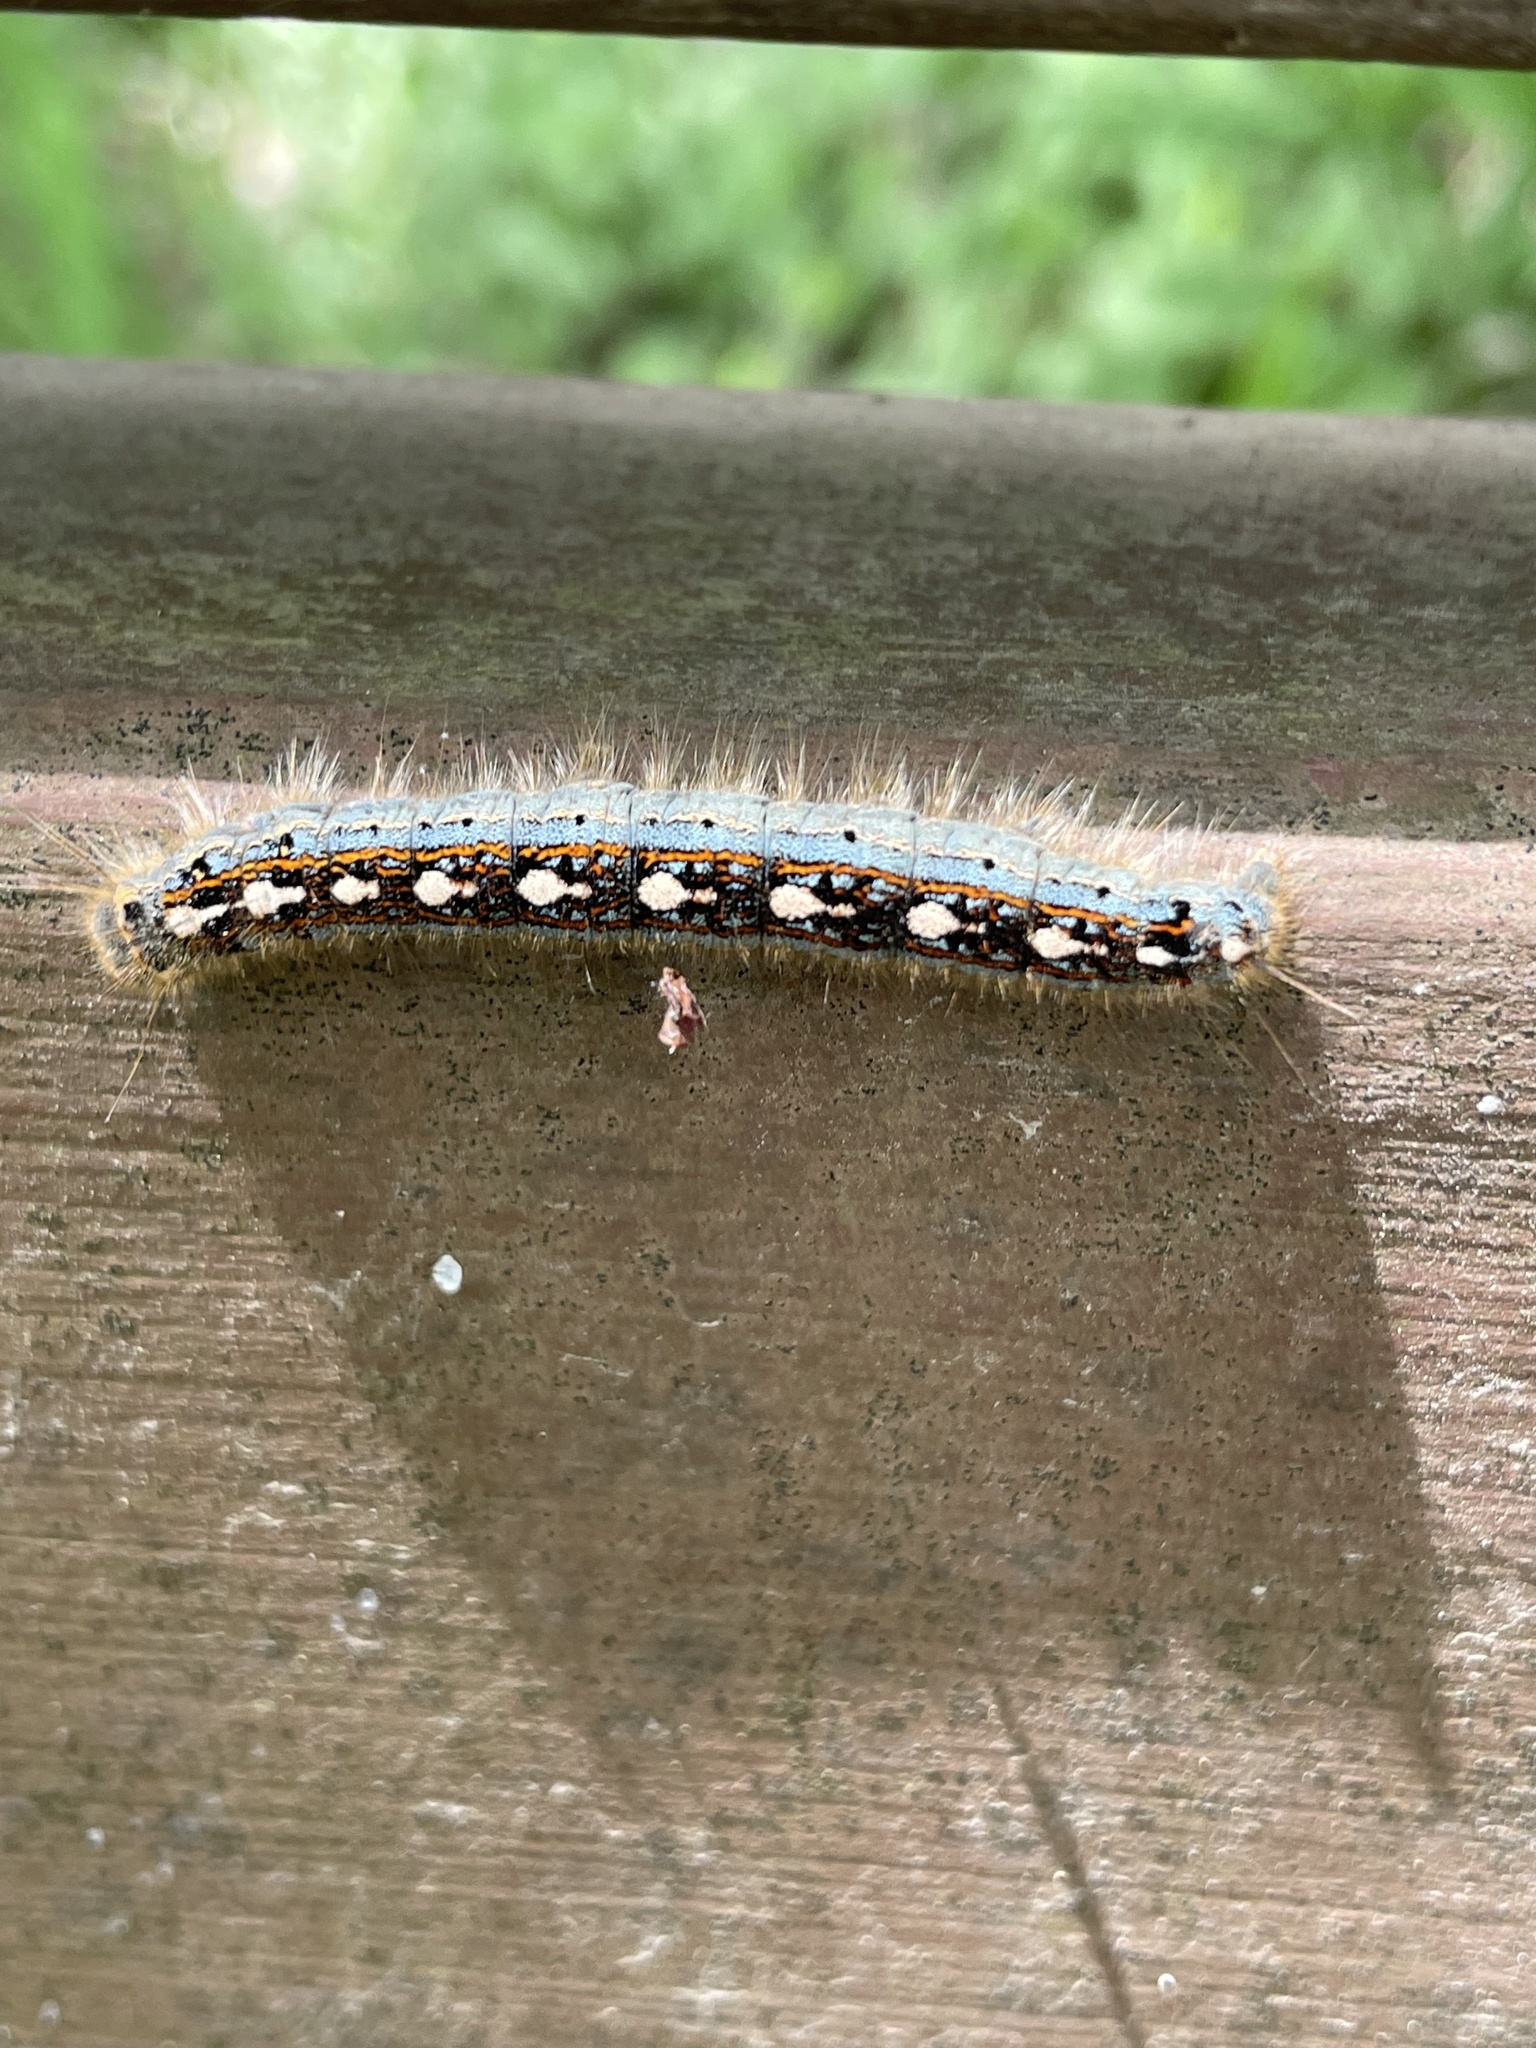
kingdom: Animalia
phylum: Arthropoda
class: Insecta
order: Lepidoptera
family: Lasiocampidae
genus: Malacosoma
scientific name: Malacosoma disstria
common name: Forest tent caterpillar
